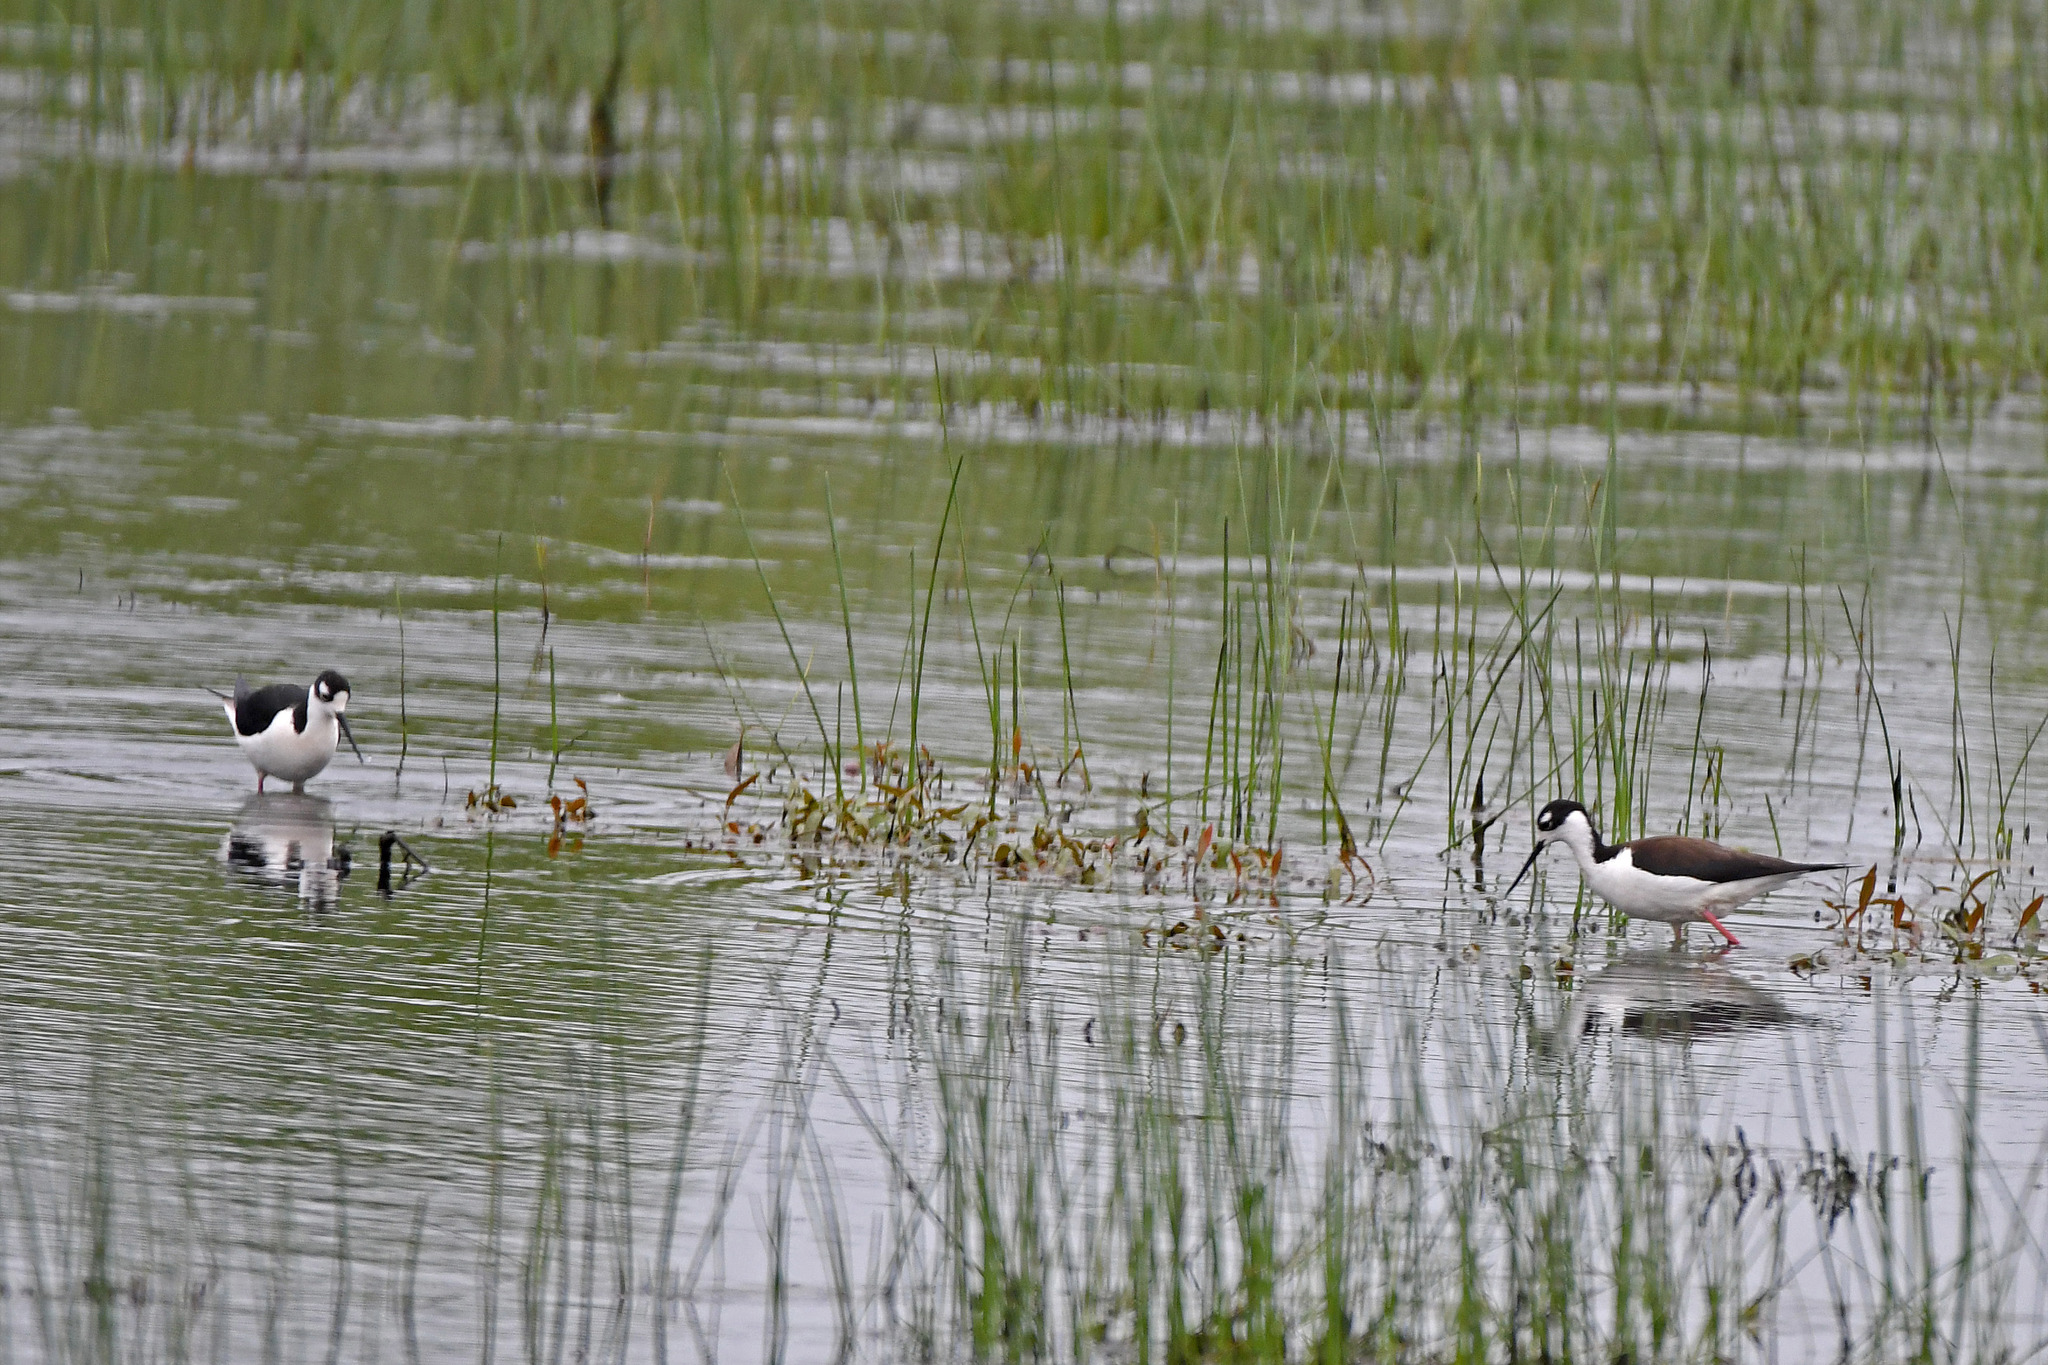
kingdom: Animalia
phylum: Chordata
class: Aves
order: Charadriiformes
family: Recurvirostridae
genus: Himantopus
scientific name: Himantopus mexicanus
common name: Black-necked stilt
